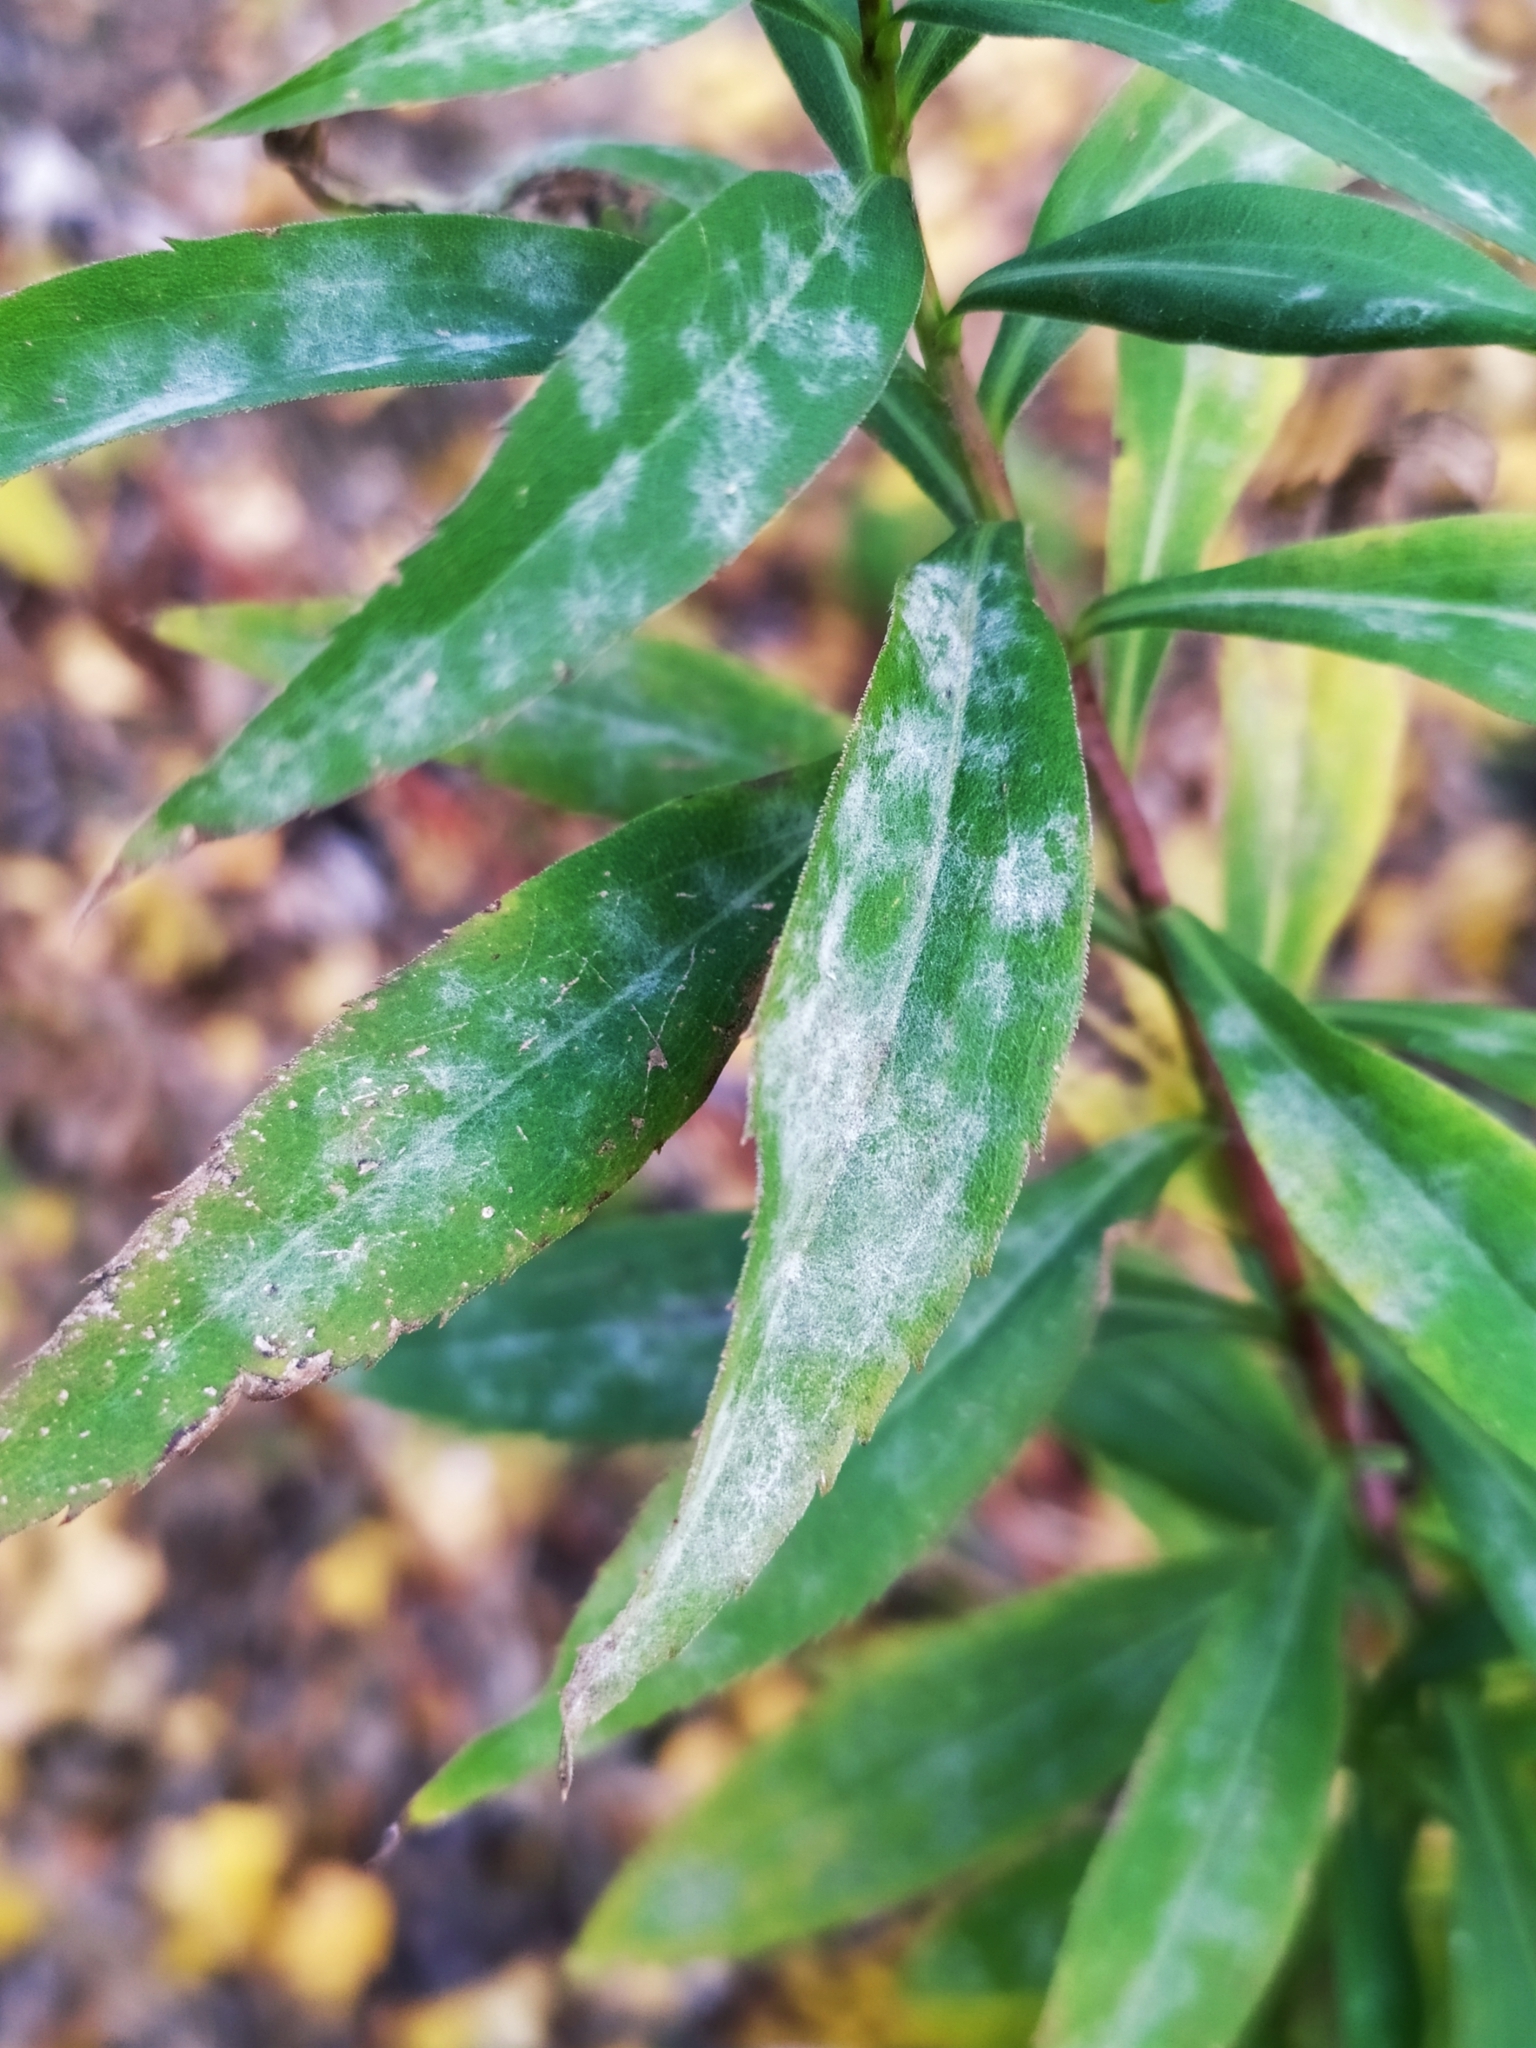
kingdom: Fungi
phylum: Ascomycota
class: Leotiomycetes
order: Helotiales
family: Erysiphaceae
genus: Golovinomyces
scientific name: Golovinomyces asterum
